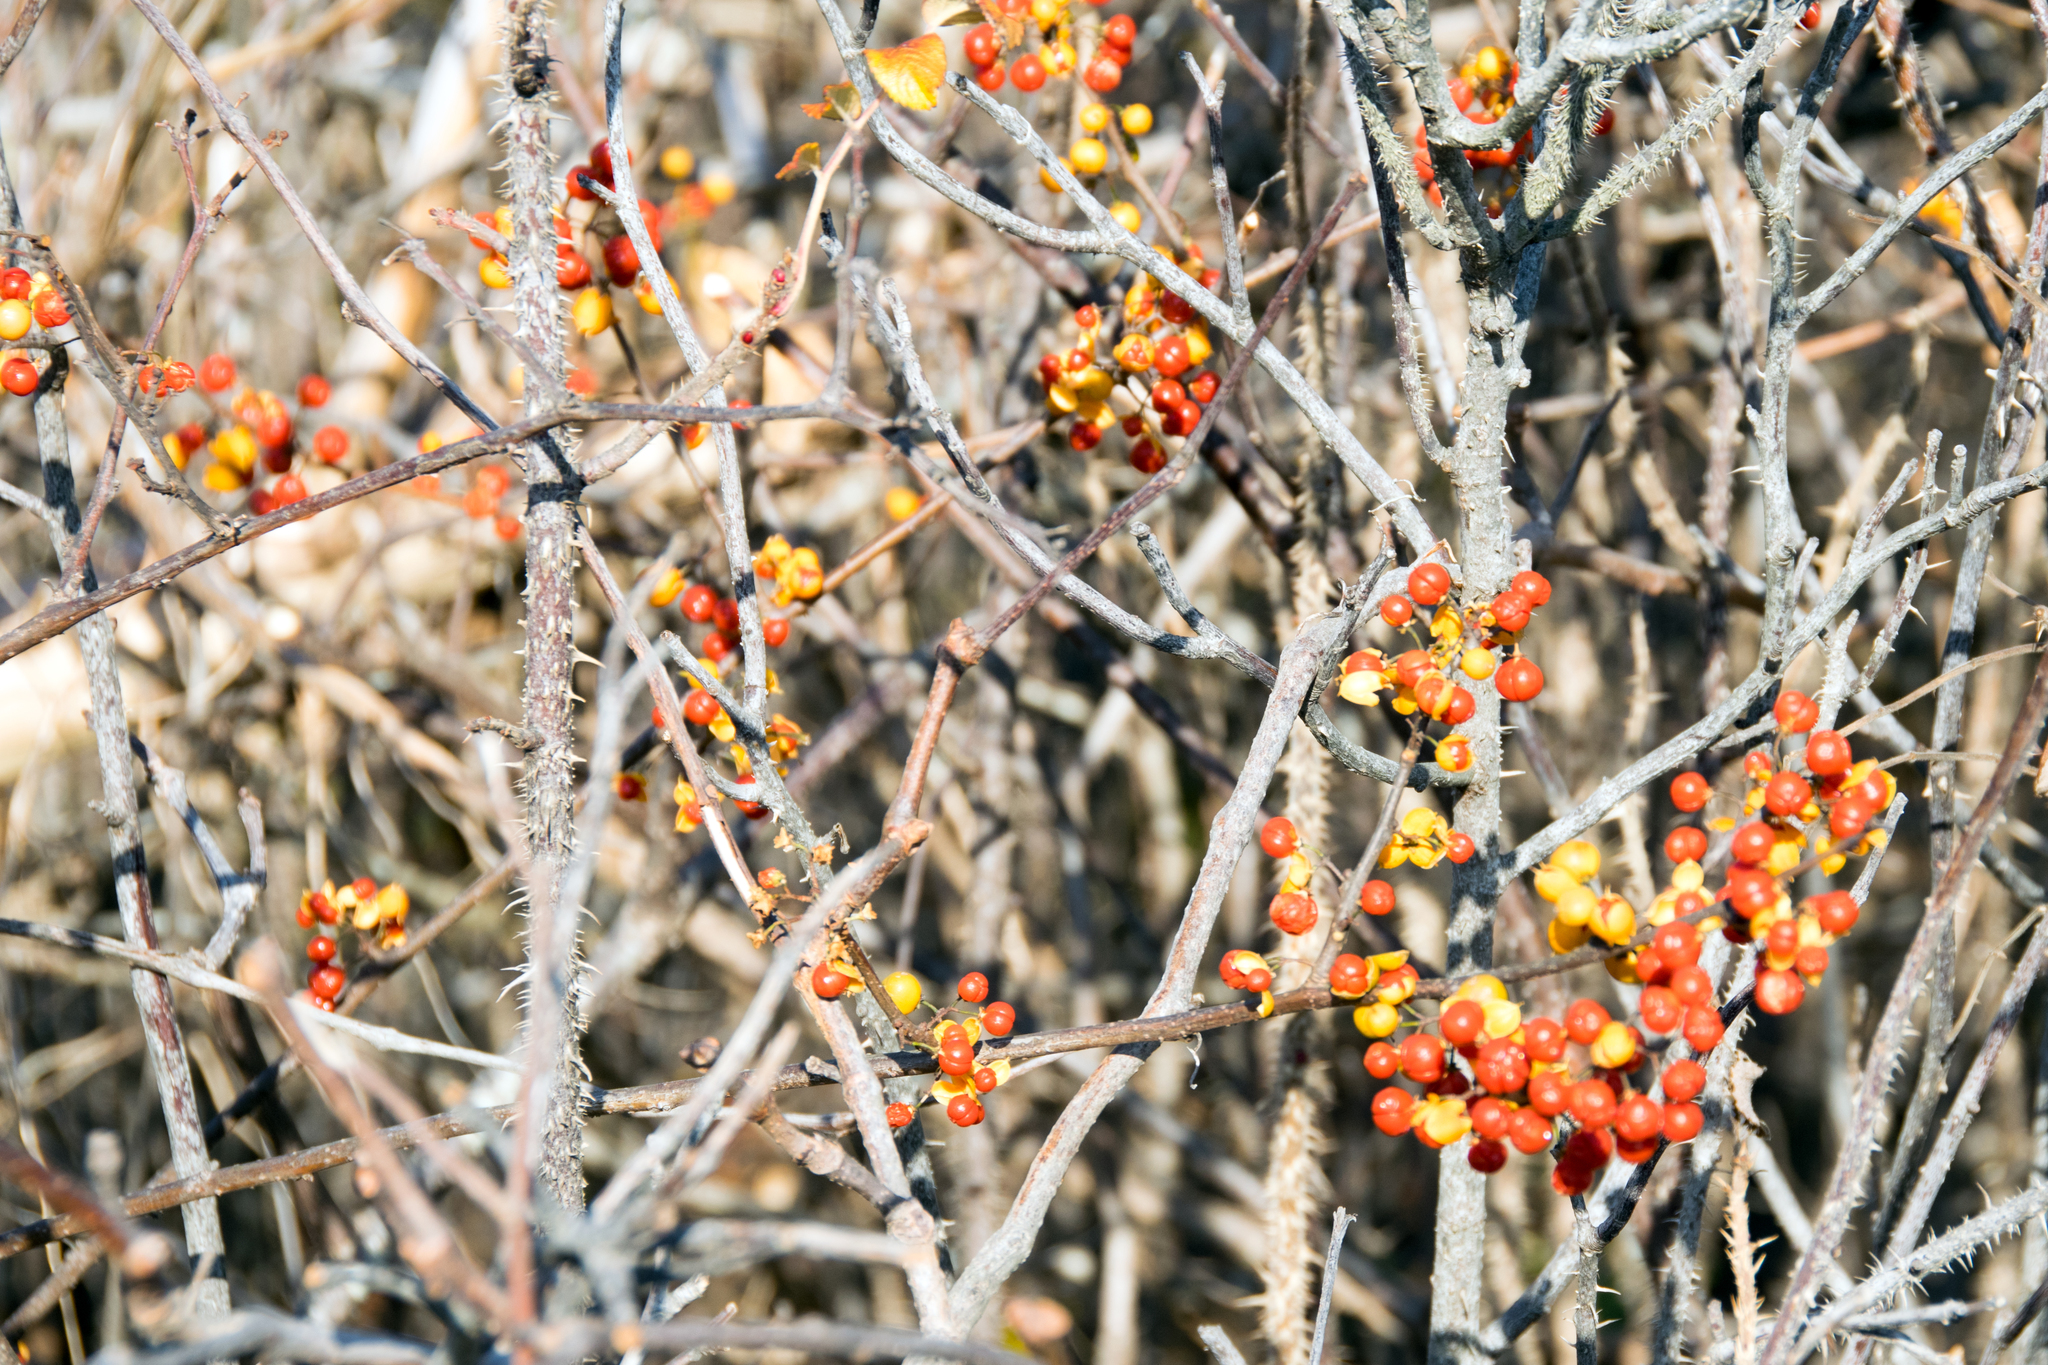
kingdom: Plantae
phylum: Tracheophyta
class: Magnoliopsida
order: Celastrales
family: Celastraceae
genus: Celastrus
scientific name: Celastrus orbiculatus
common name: Oriental bittersweet
